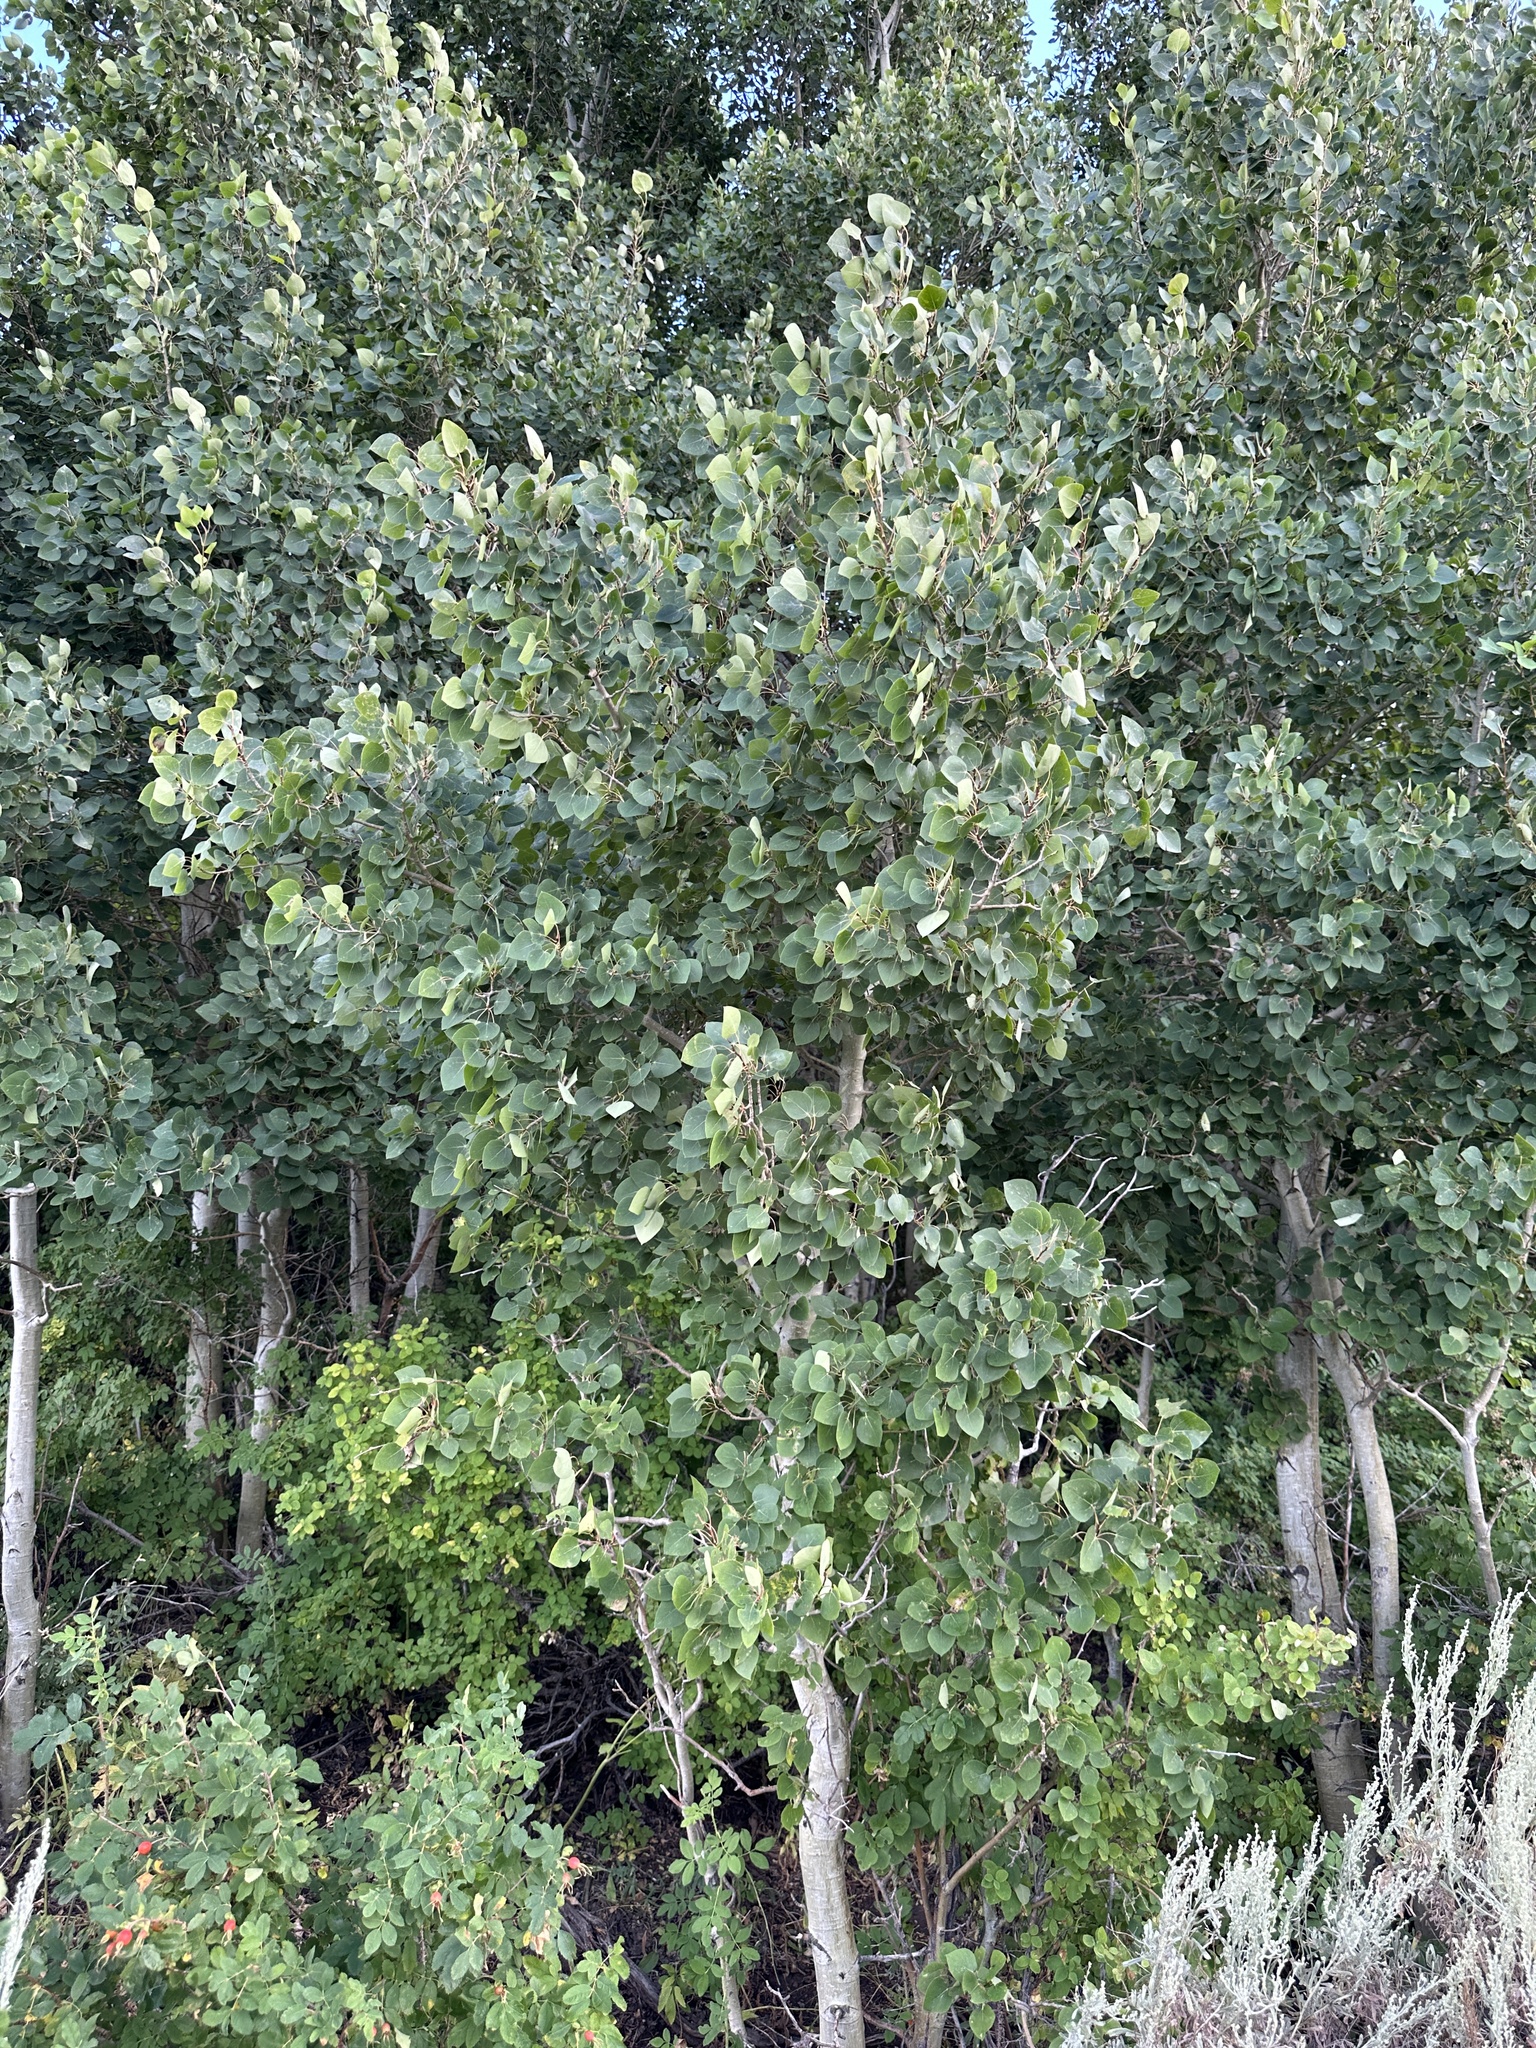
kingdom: Plantae
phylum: Tracheophyta
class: Magnoliopsida
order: Malpighiales
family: Salicaceae
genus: Populus
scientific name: Populus tremuloides
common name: Quaking aspen
